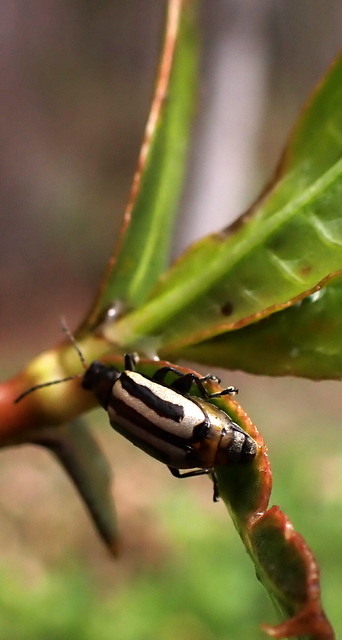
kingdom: Animalia
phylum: Arthropoda
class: Insecta
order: Coleoptera
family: Chrysomelidae
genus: Agasicles
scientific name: Agasicles hygrophila
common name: Alligatorweed flea beetle
